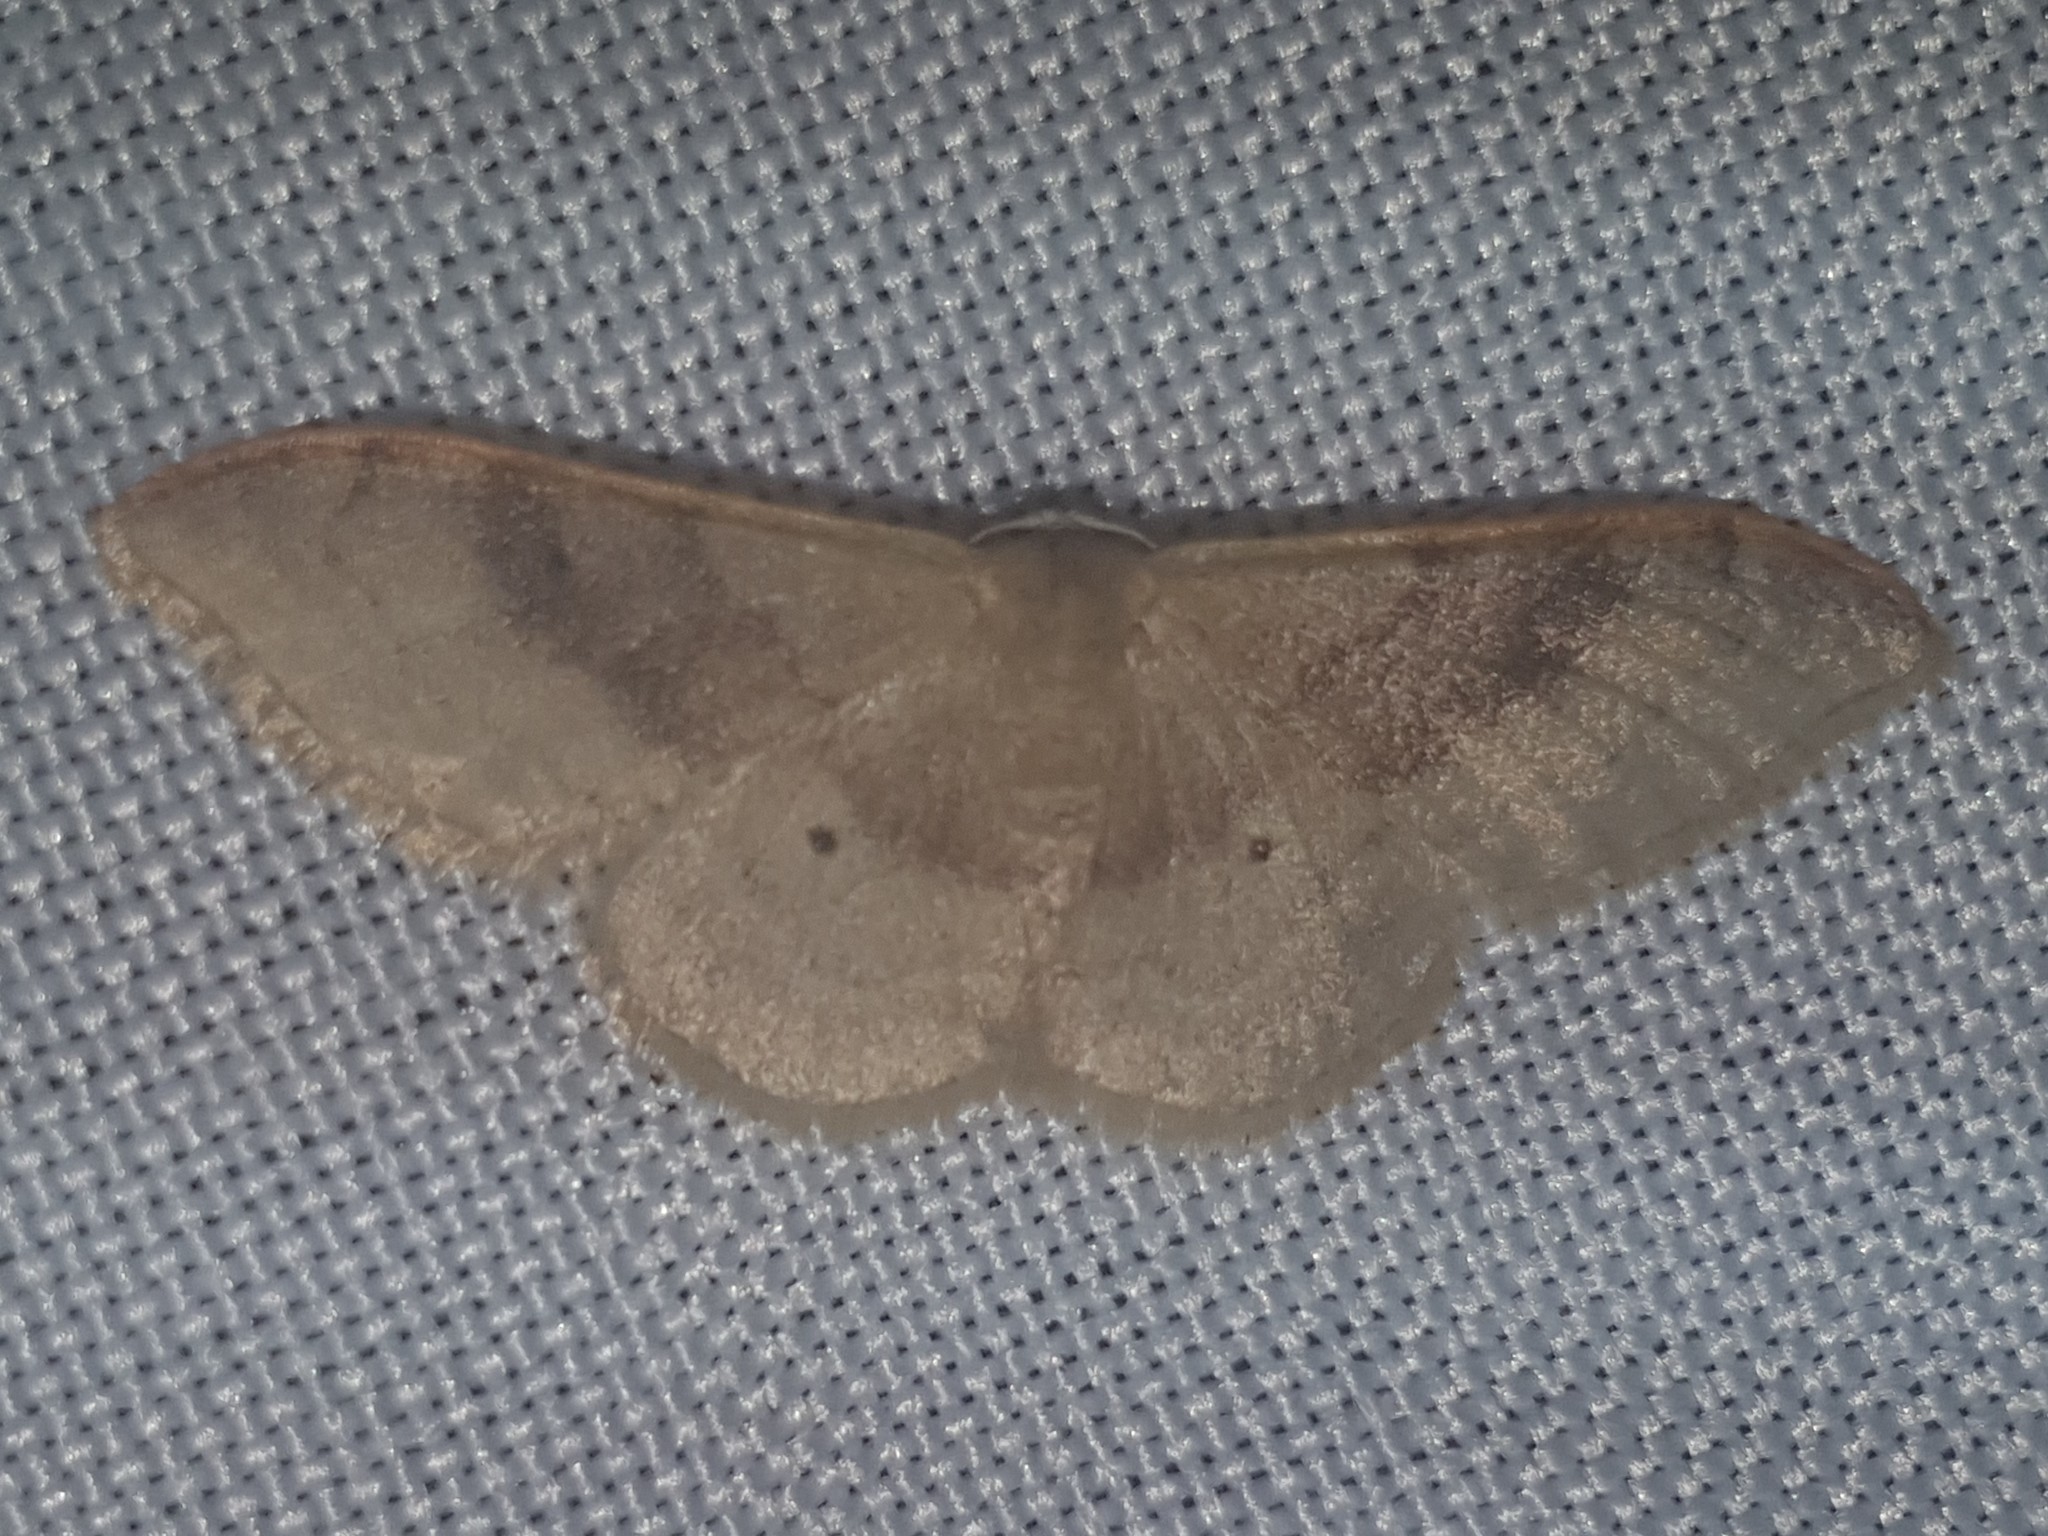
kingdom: Animalia
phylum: Arthropoda
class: Insecta
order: Lepidoptera
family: Geometridae
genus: Idaea
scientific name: Idaea degeneraria
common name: Portland ribbon wave
